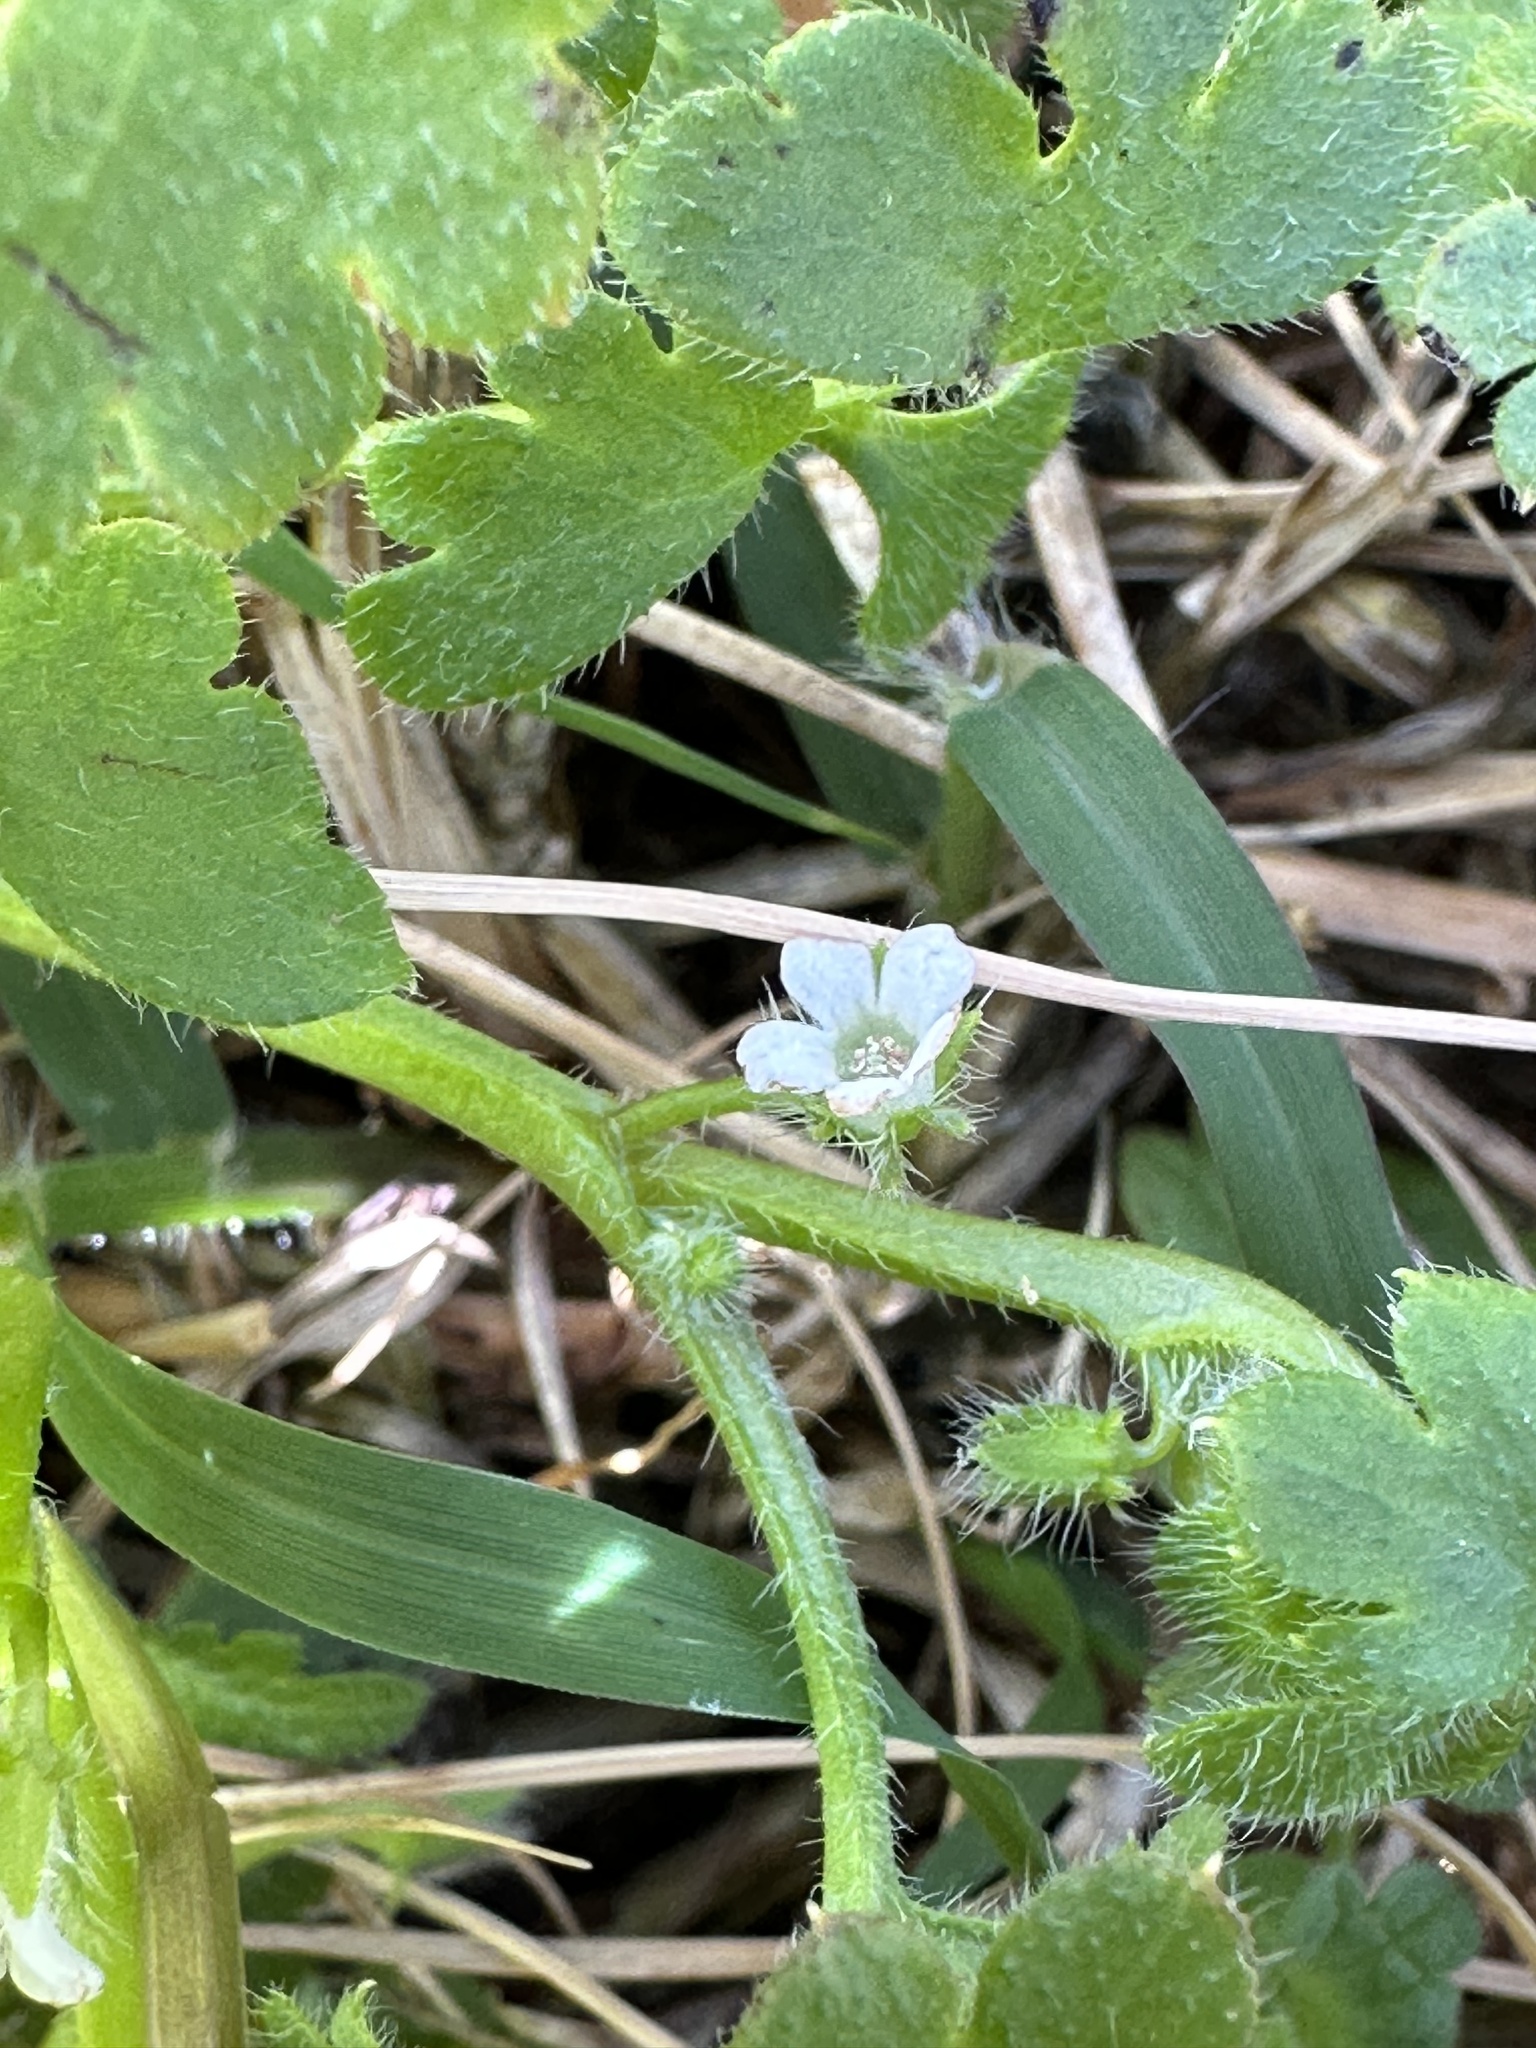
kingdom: Plantae
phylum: Tracheophyta
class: Magnoliopsida
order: Boraginales
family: Hydrophyllaceae
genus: Nemophila
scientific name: Nemophila aphylla
